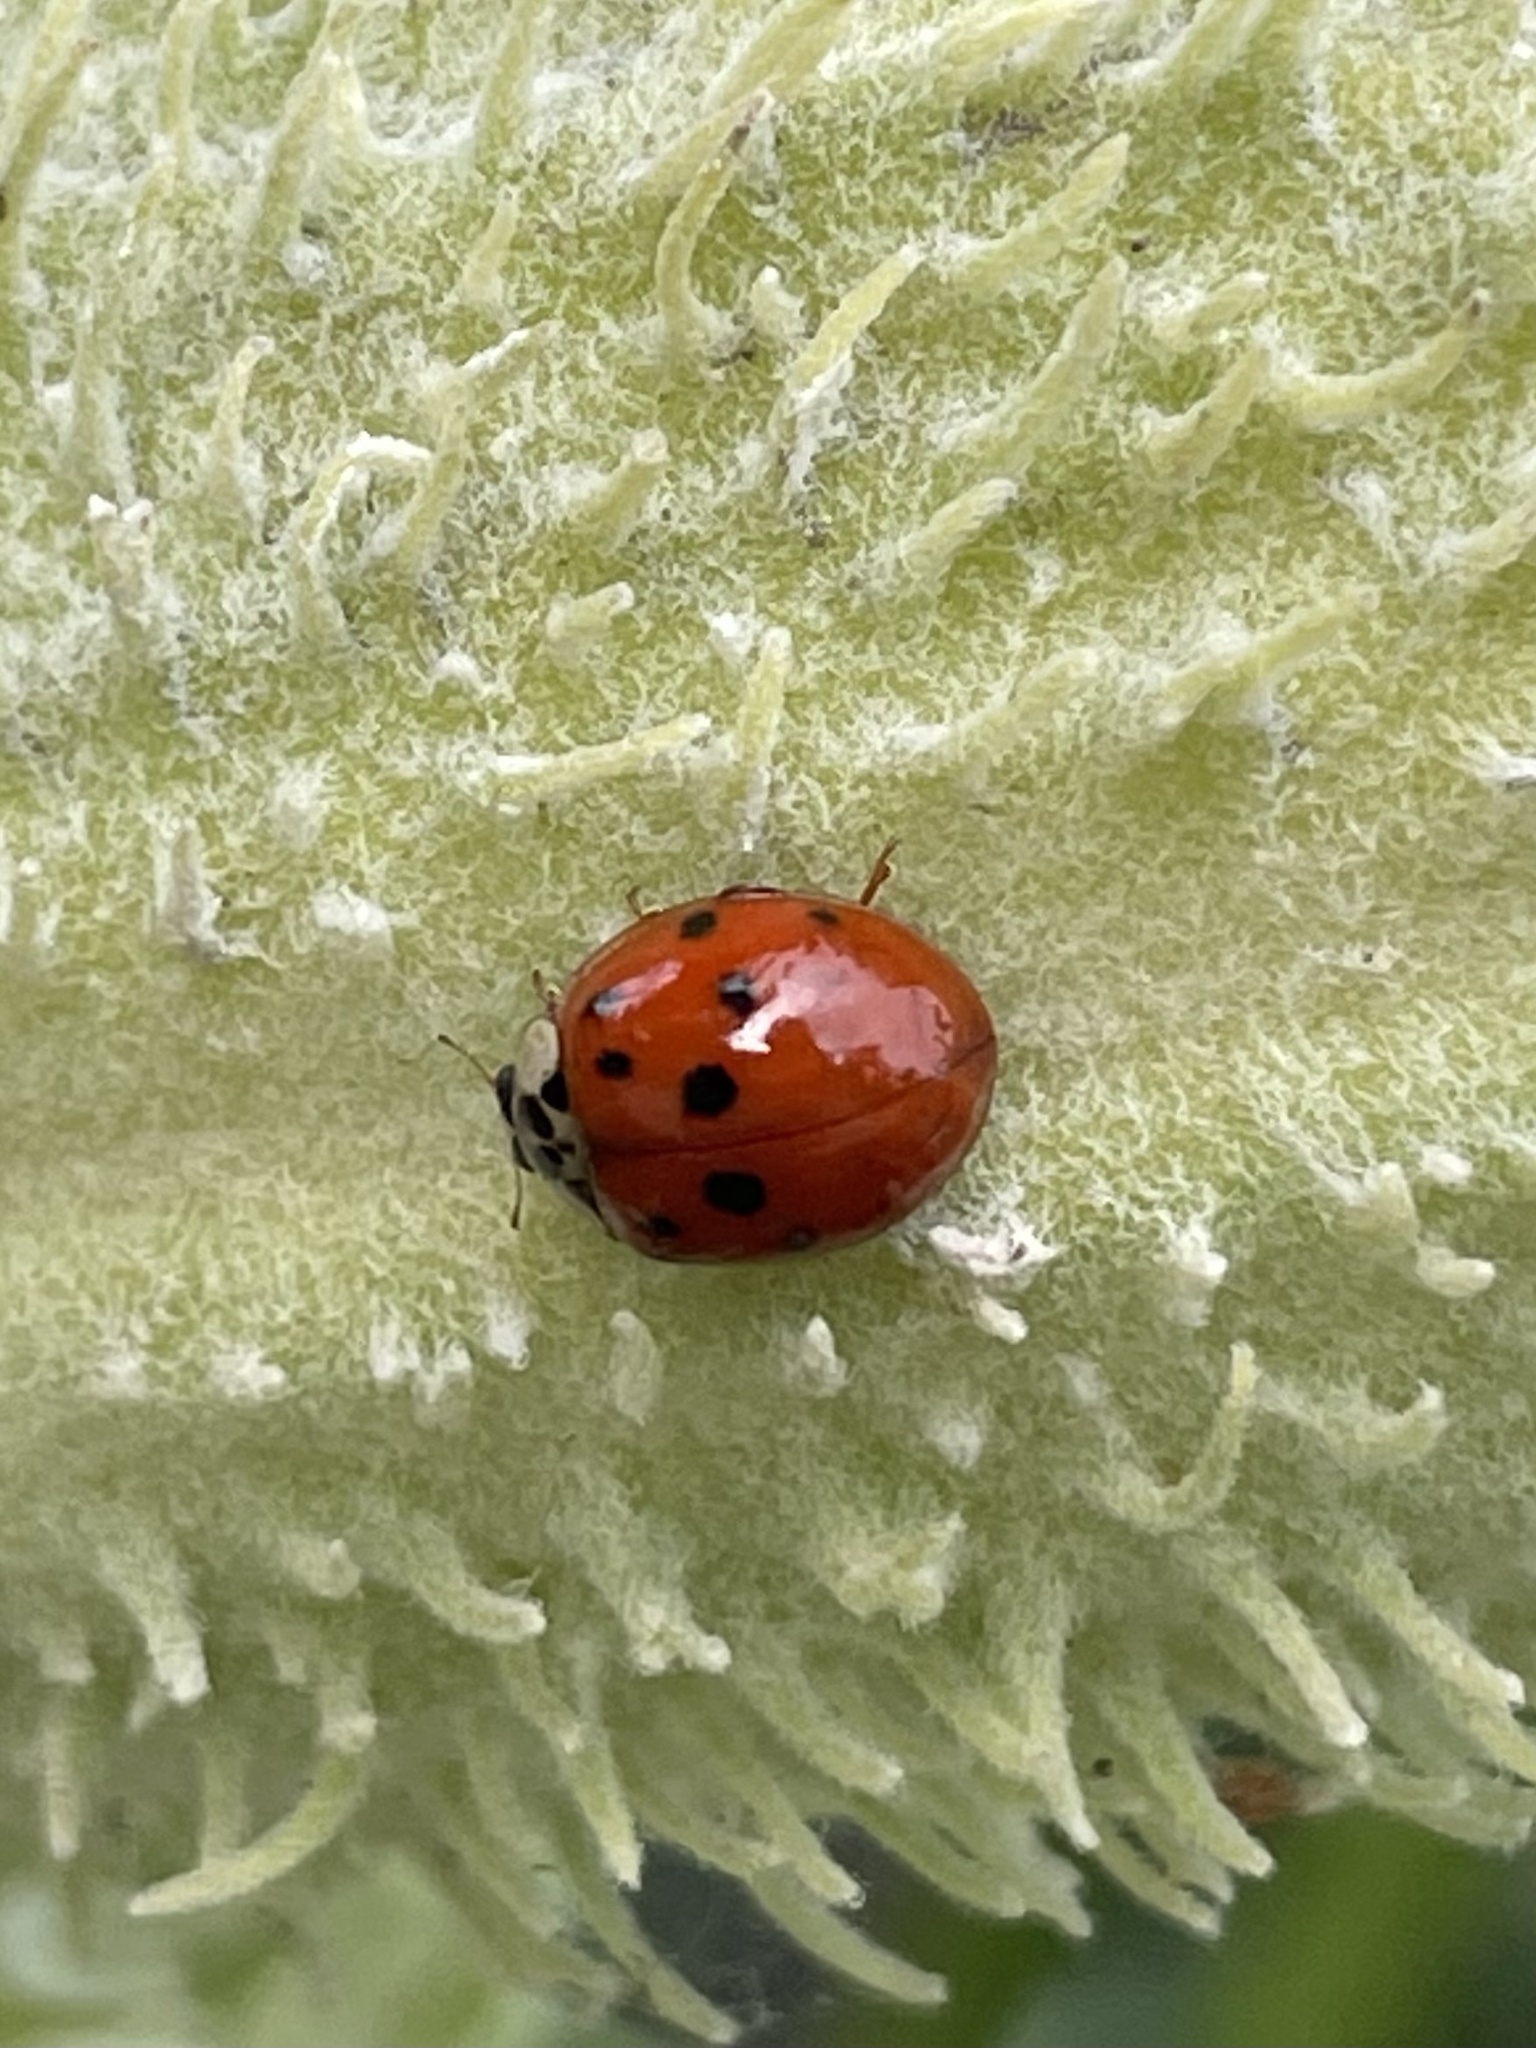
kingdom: Animalia
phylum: Arthropoda
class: Insecta
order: Coleoptera
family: Coccinellidae
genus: Harmonia
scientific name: Harmonia axyridis
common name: Harlequin ladybird
